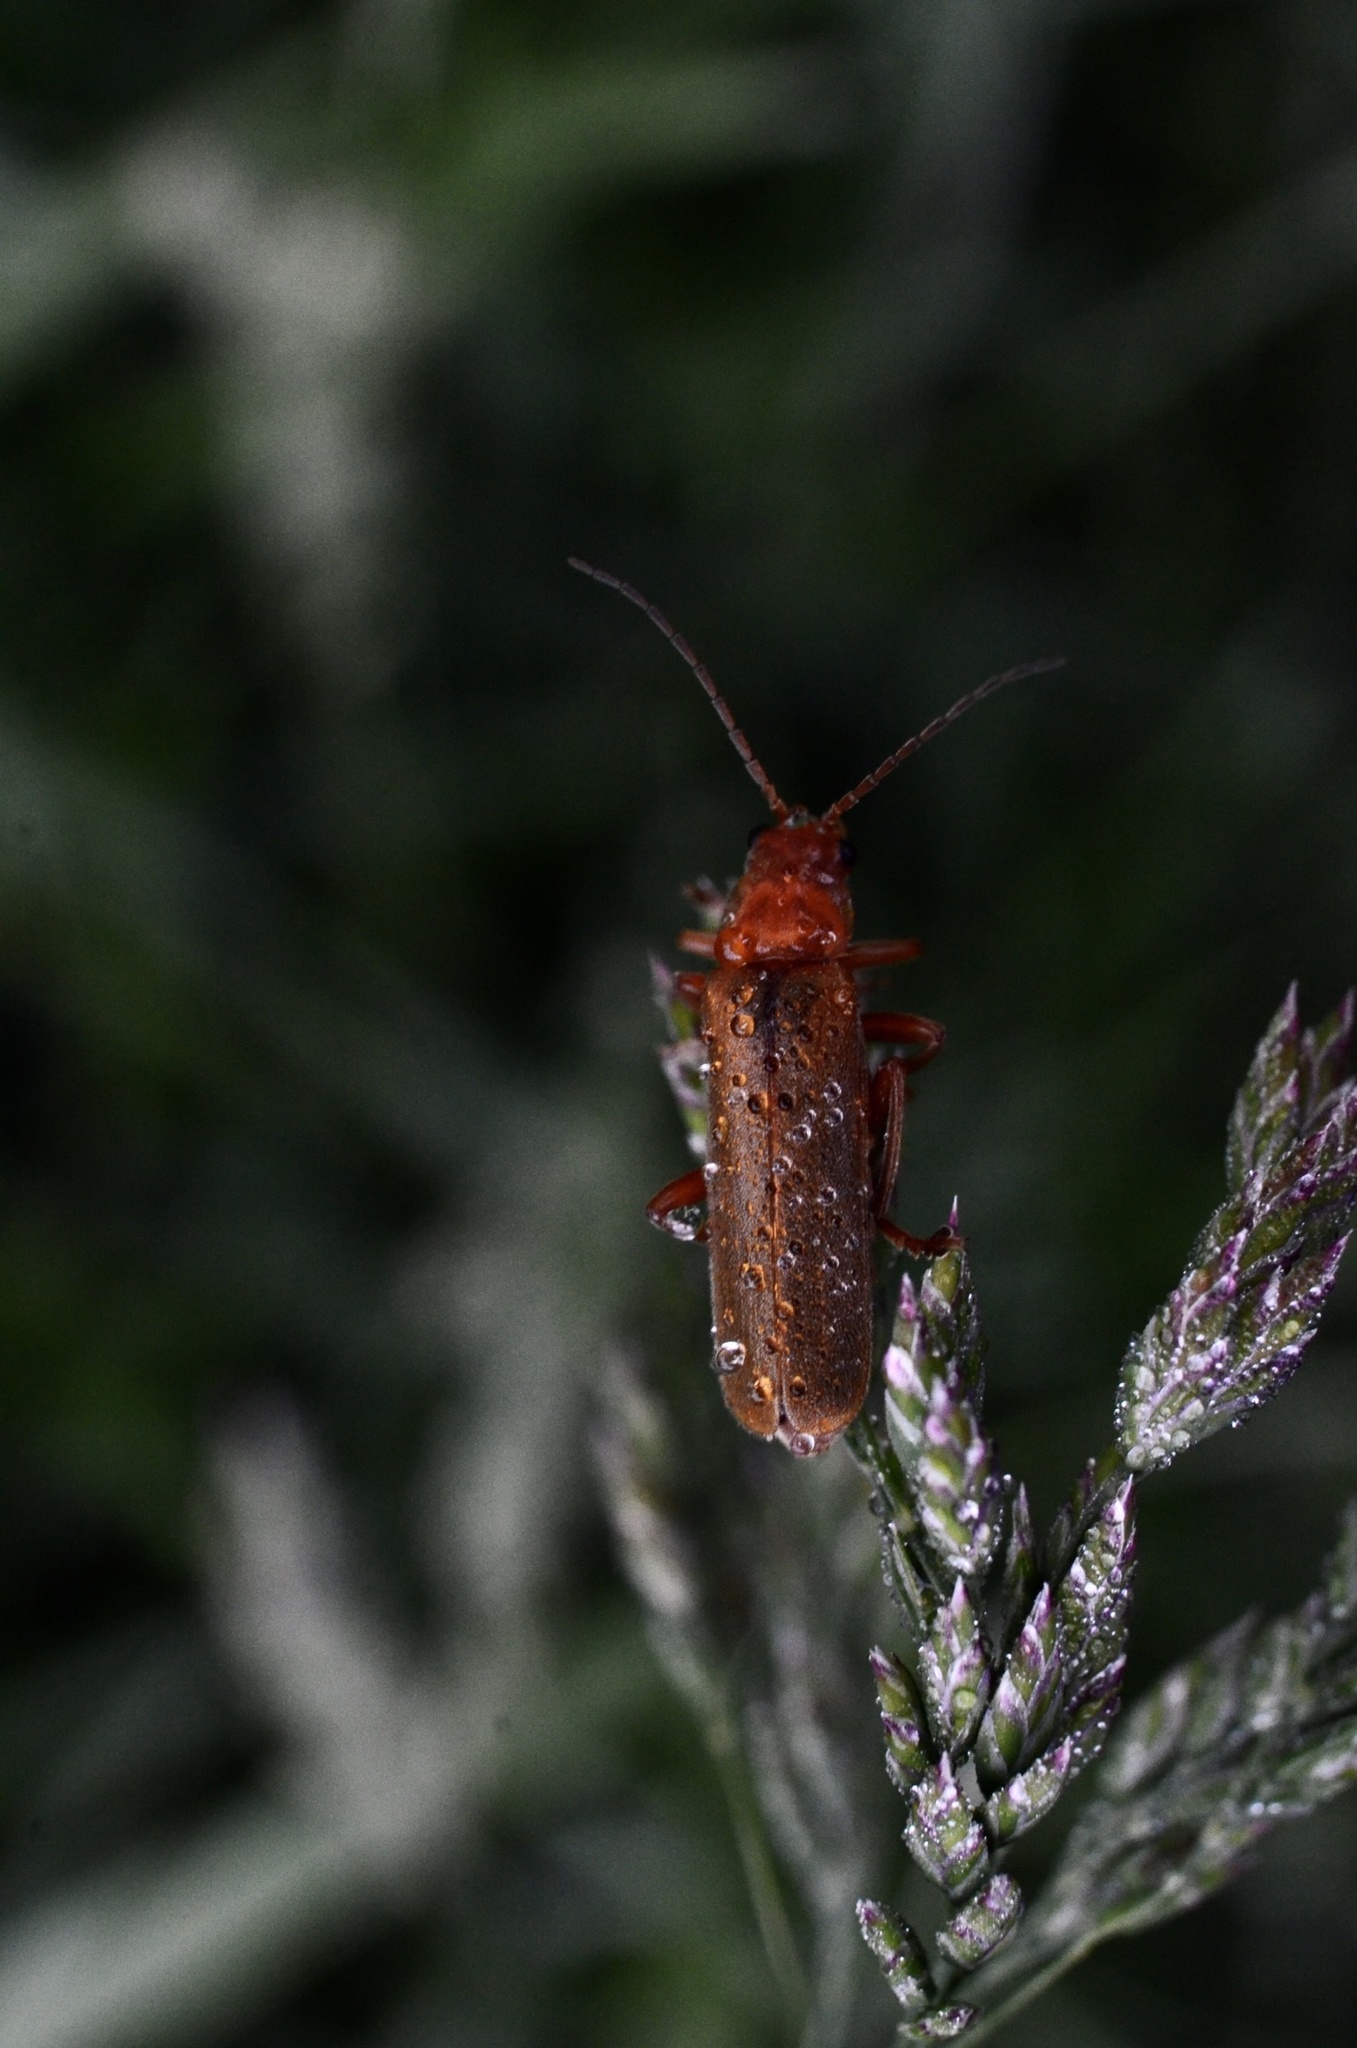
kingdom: Animalia
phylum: Arthropoda
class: Insecta
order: Coleoptera
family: Cantharidae
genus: Cantharis
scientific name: Cantharis rufa
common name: Red-spotted soldier beetle
